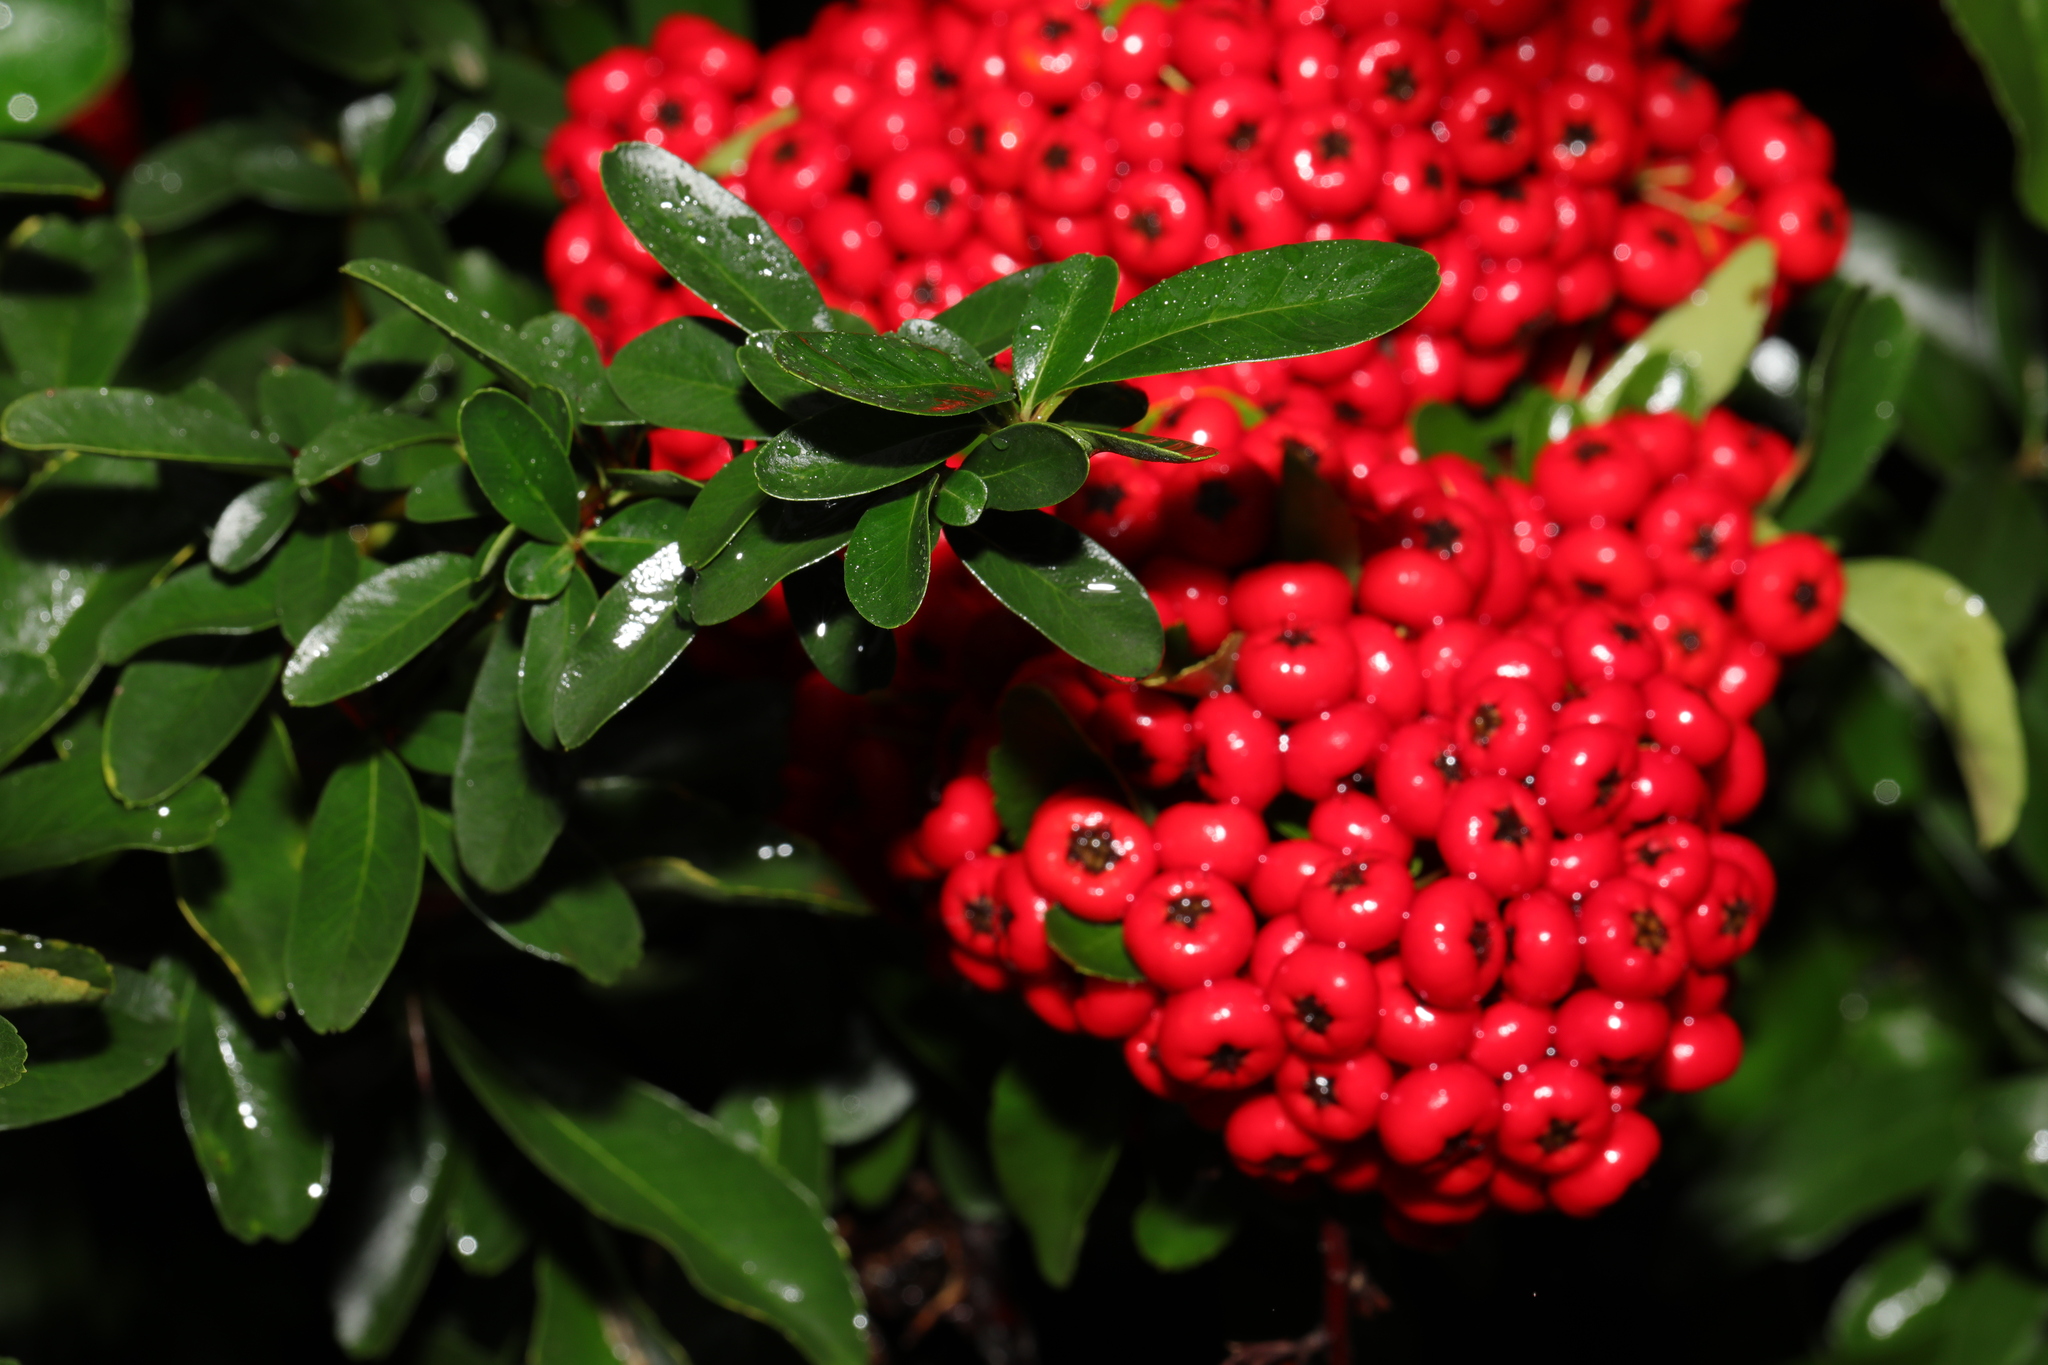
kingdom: Plantae
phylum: Tracheophyta
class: Magnoliopsida
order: Rosales
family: Rosaceae
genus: Pyracantha
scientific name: Pyracantha coccinea
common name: Firethorn
